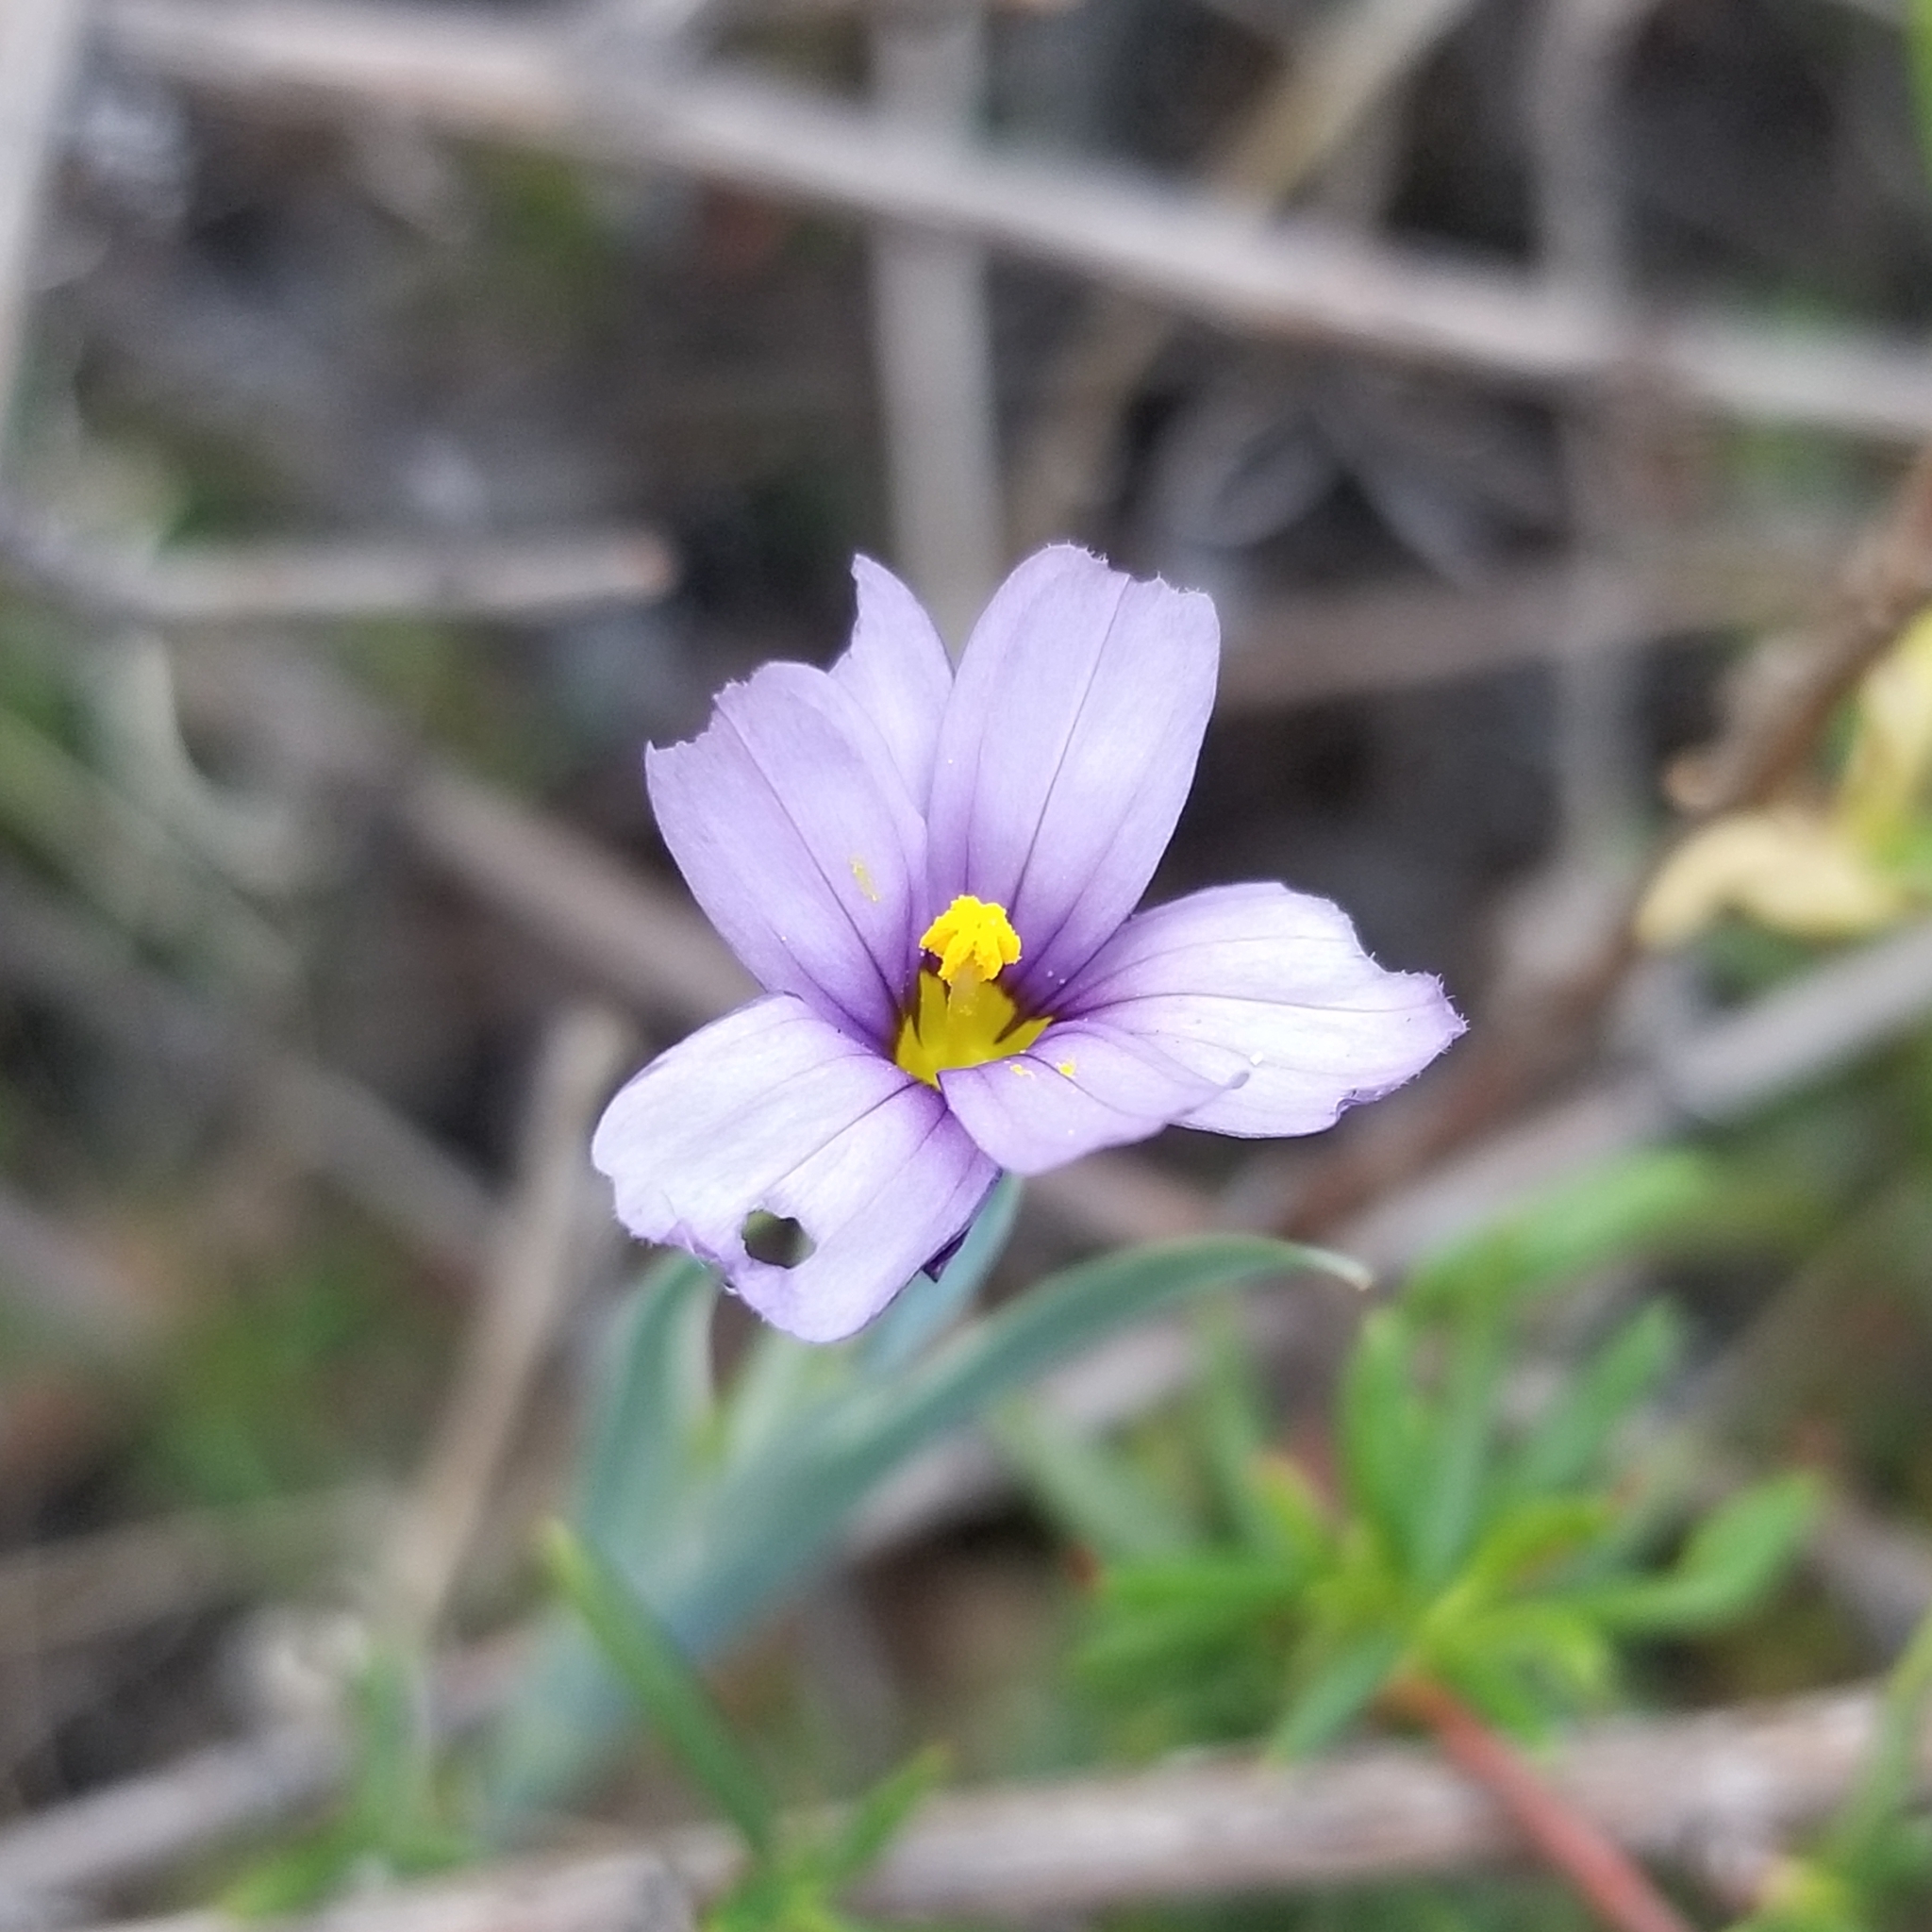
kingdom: Plantae
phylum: Tracheophyta
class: Liliopsida
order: Asparagales
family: Iridaceae
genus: Sisyrinchium
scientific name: Sisyrinchium bellum
